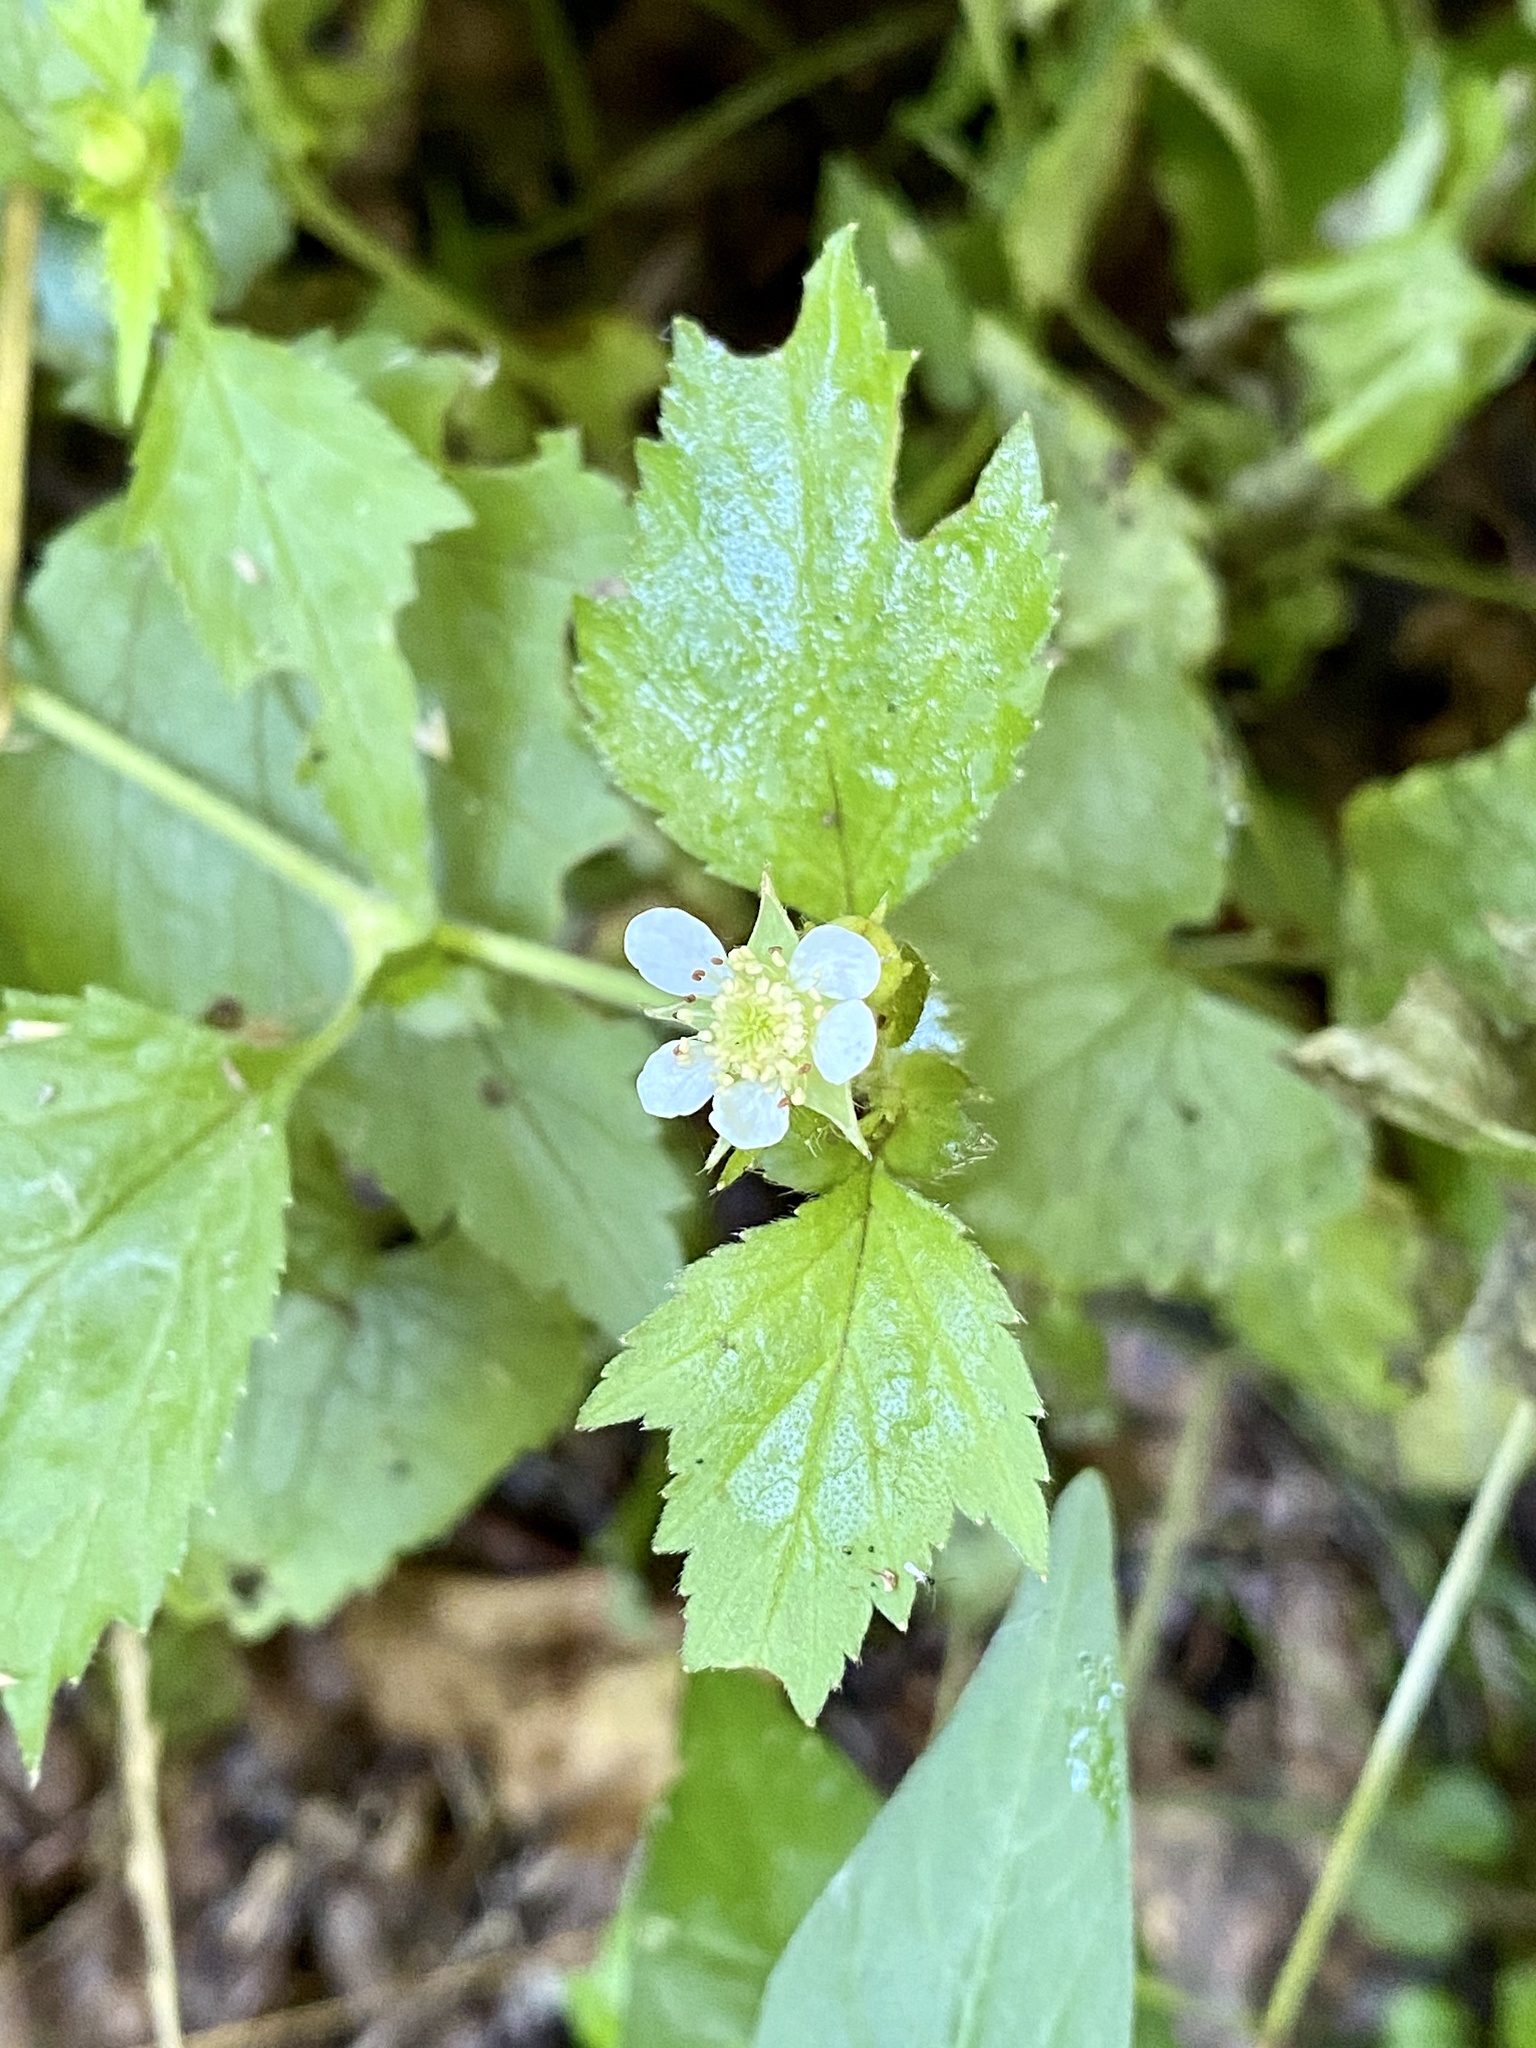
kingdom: Plantae
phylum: Tracheophyta
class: Magnoliopsida
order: Rosales
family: Rosaceae
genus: Geum
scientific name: Geum canadense
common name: White avens
